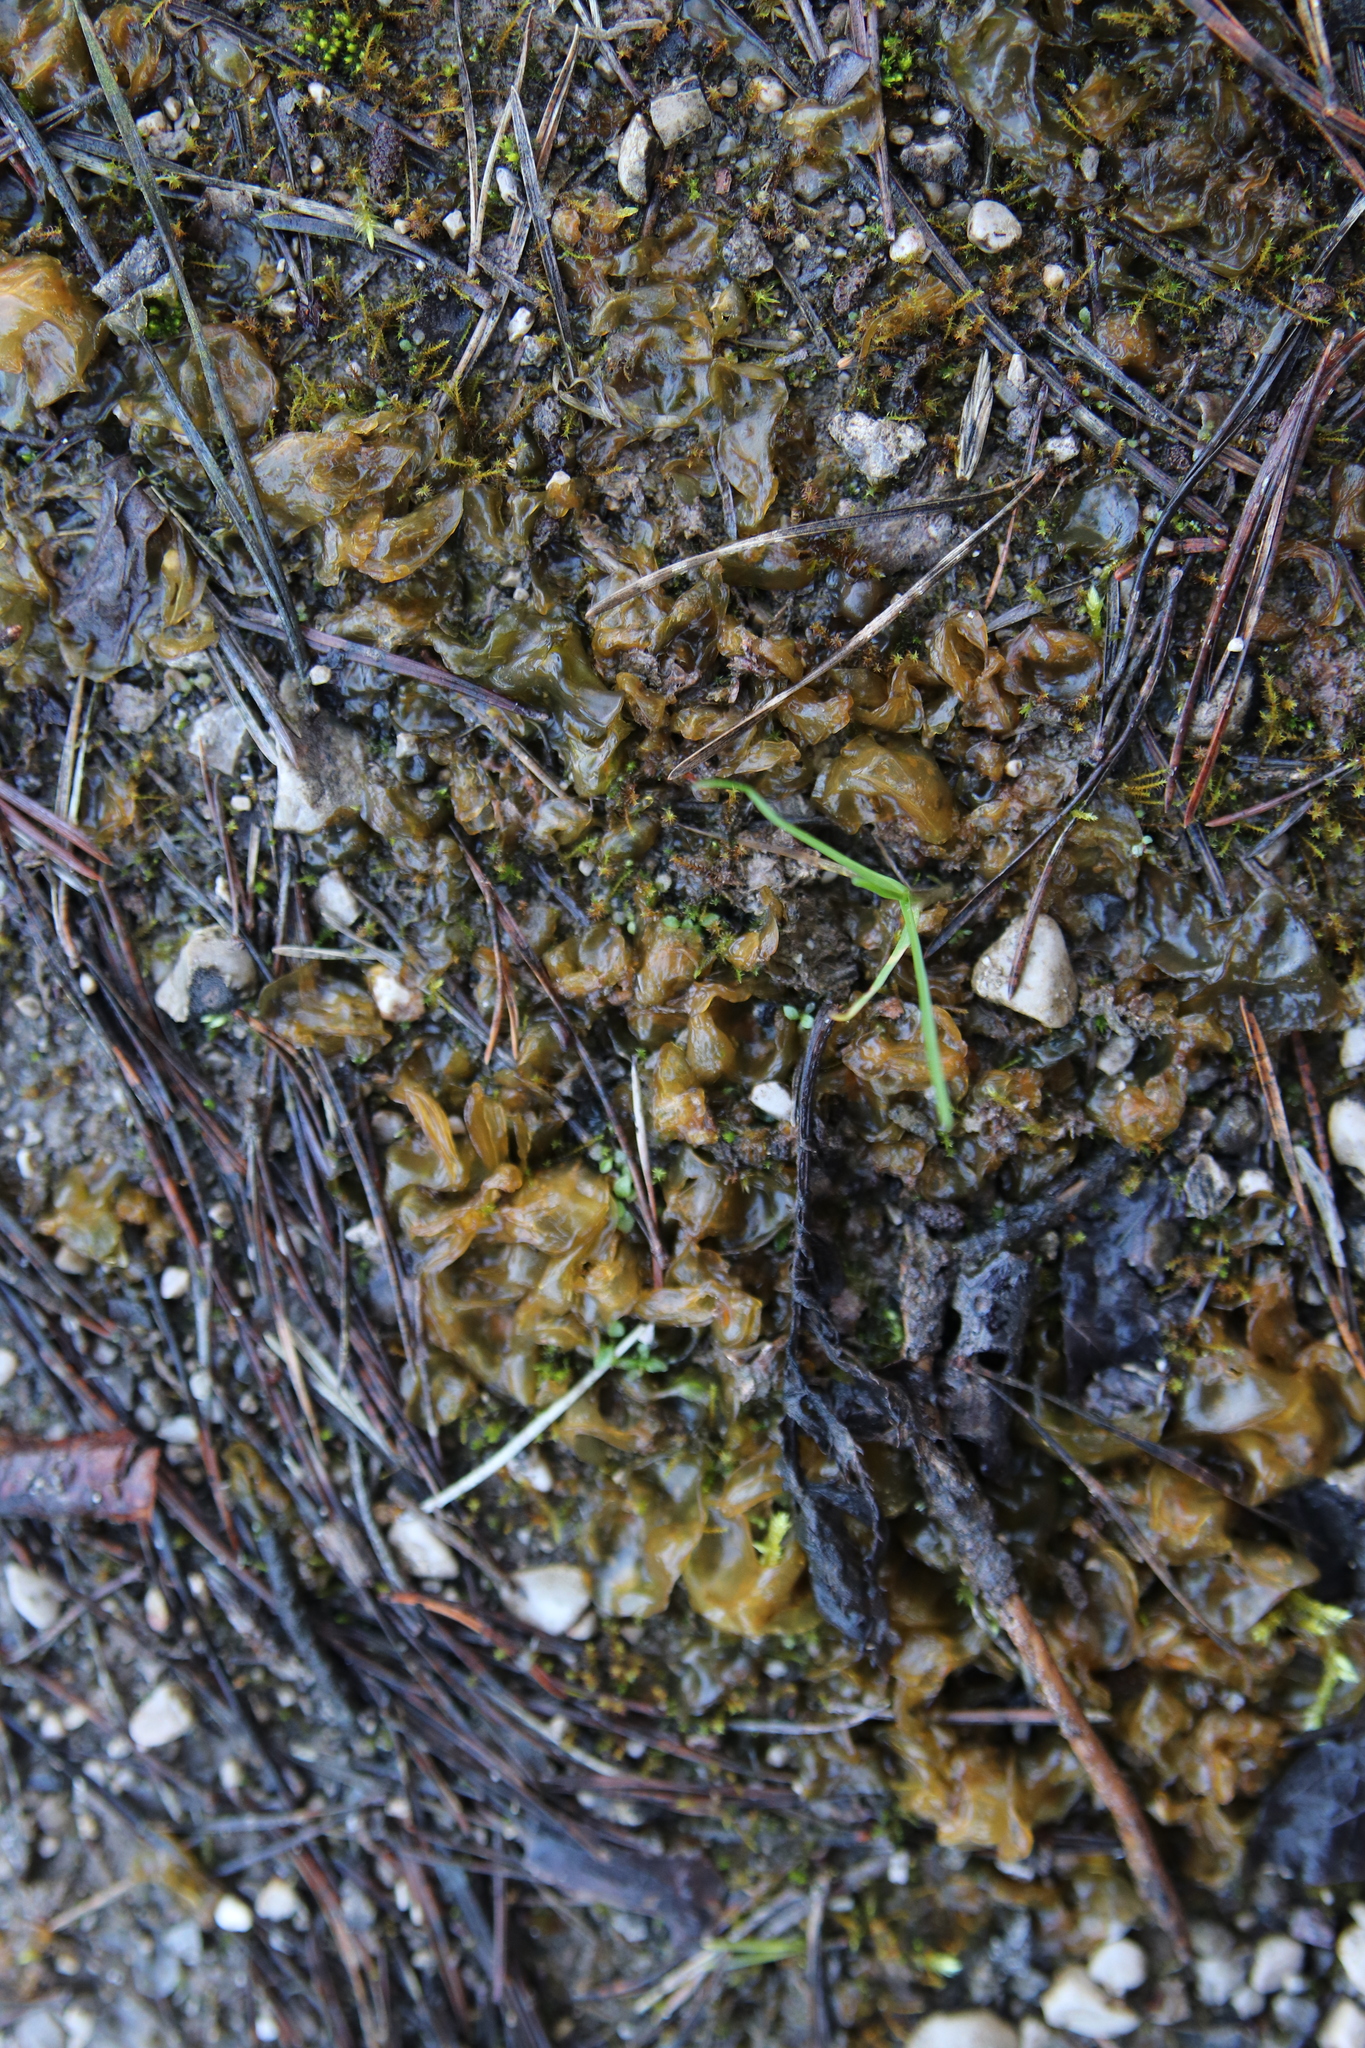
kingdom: Bacteria
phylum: Cyanobacteria
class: Cyanobacteriia
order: Cyanobacteriales
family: Nostocaceae
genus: Nostoc
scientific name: Nostoc commune
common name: Star jelly
